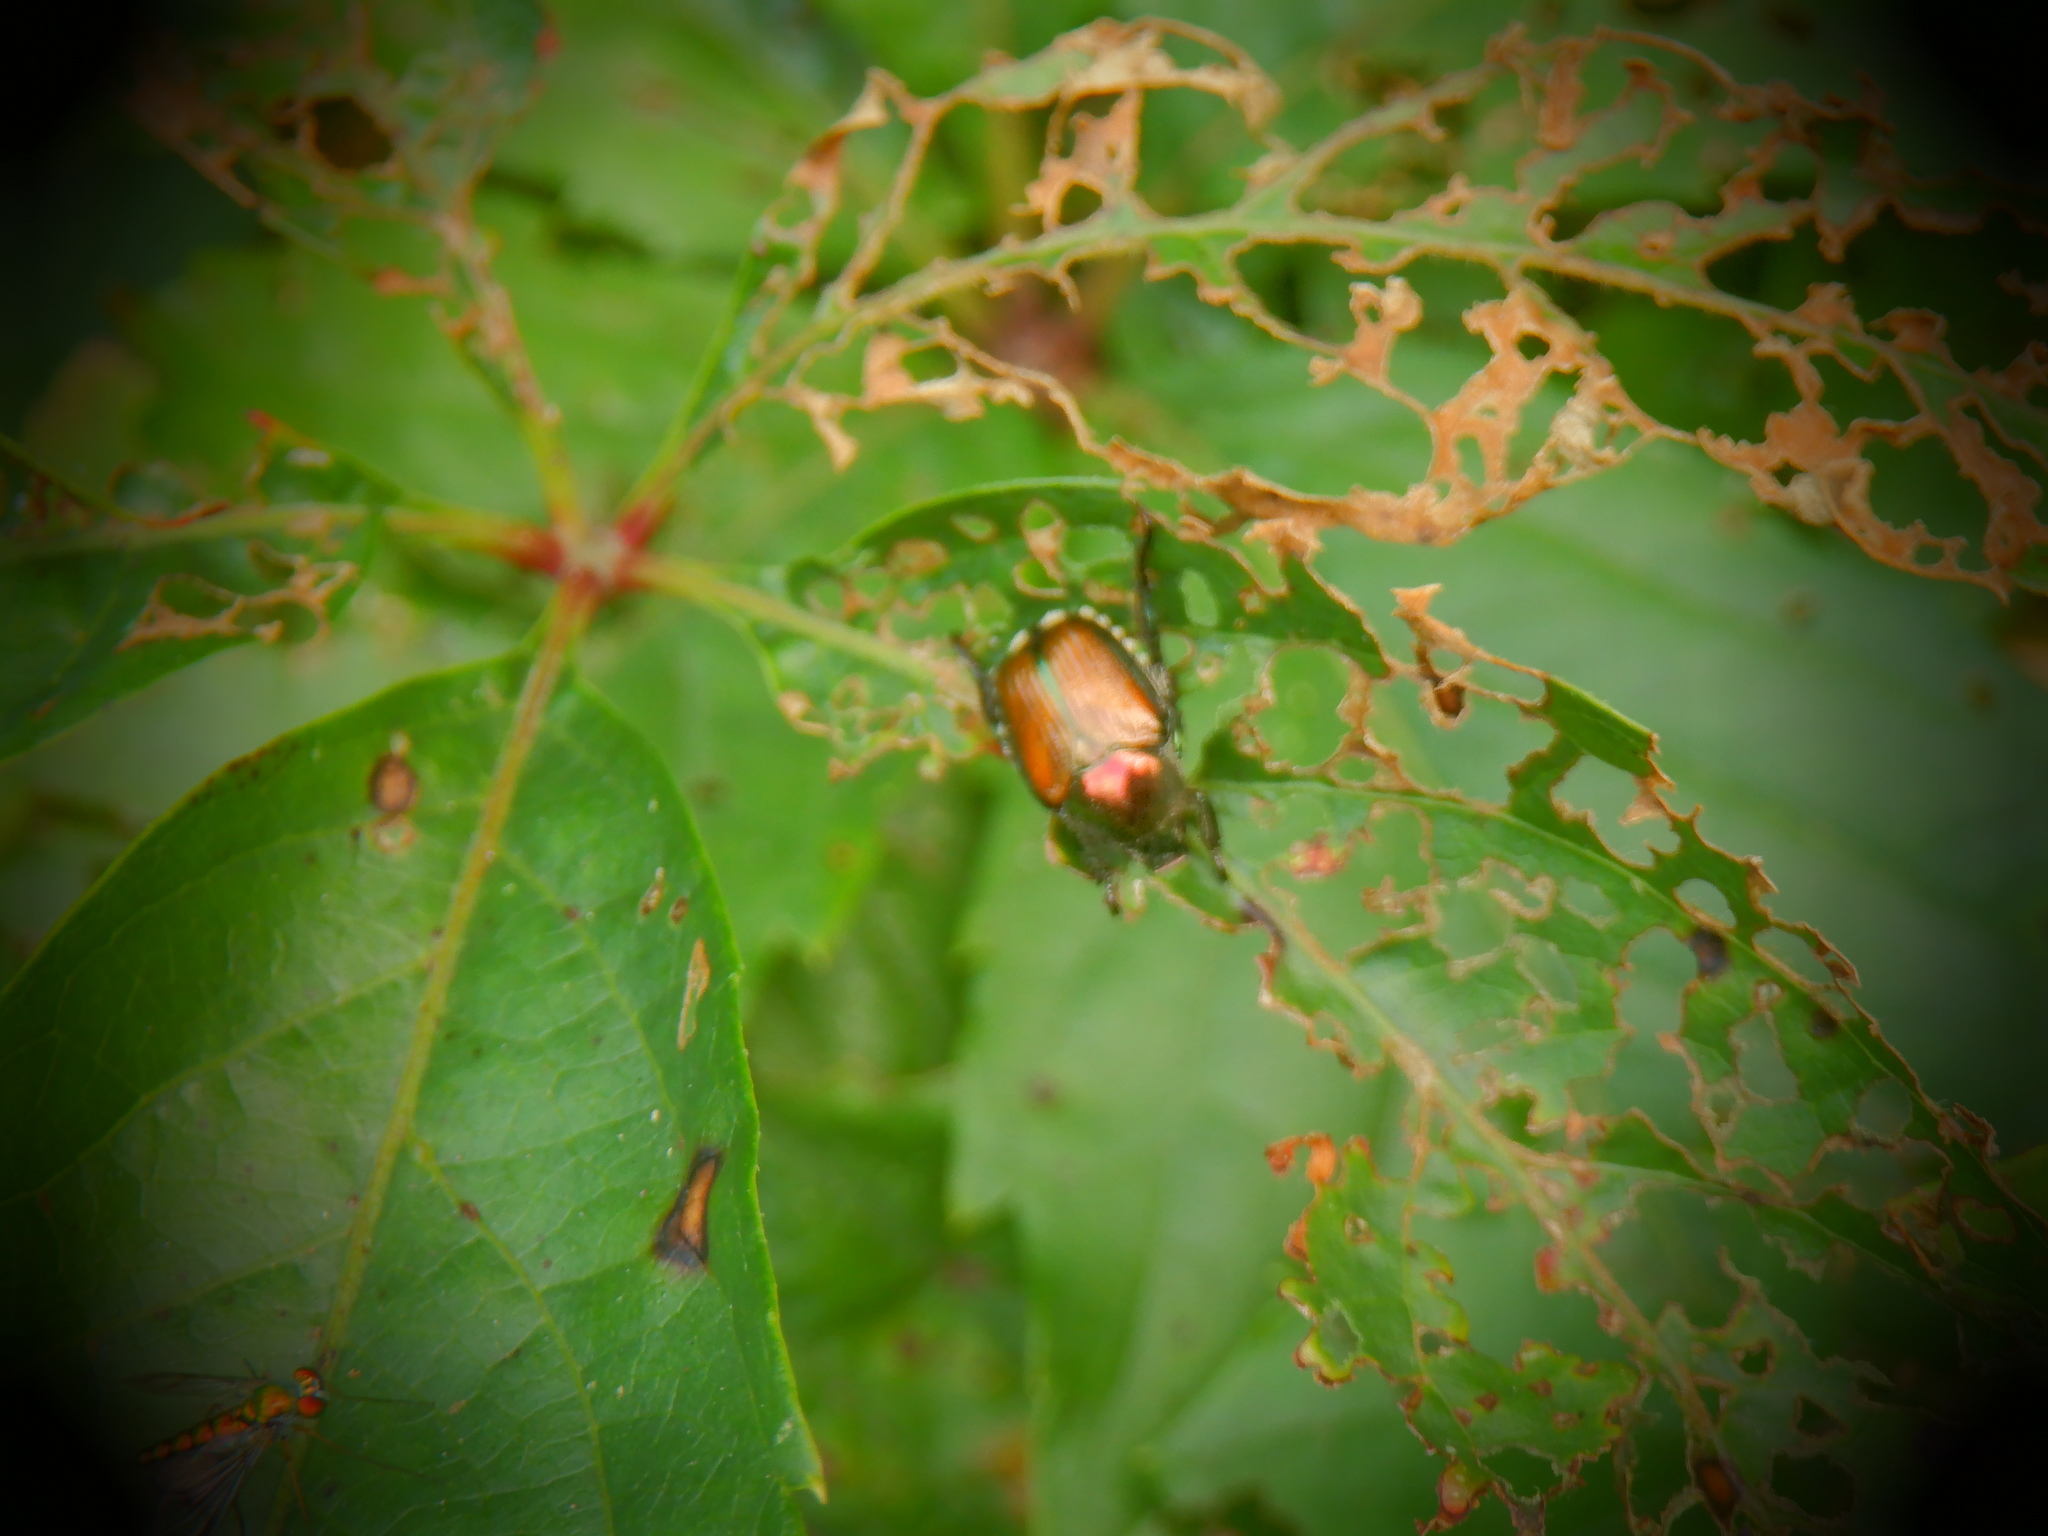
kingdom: Animalia
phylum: Arthropoda
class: Insecta
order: Coleoptera
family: Scarabaeidae
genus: Popillia
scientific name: Popillia japonica
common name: Japanese beetle
